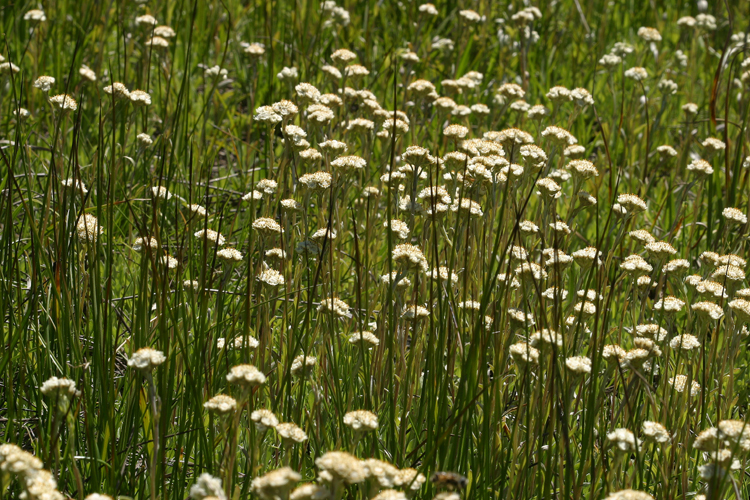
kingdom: Plantae
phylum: Tracheophyta
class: Magnoliopsida
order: Asterales
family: Asteraceae
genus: Antennaria
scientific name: Antennaria corymbosa
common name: Meadow pussytoes
